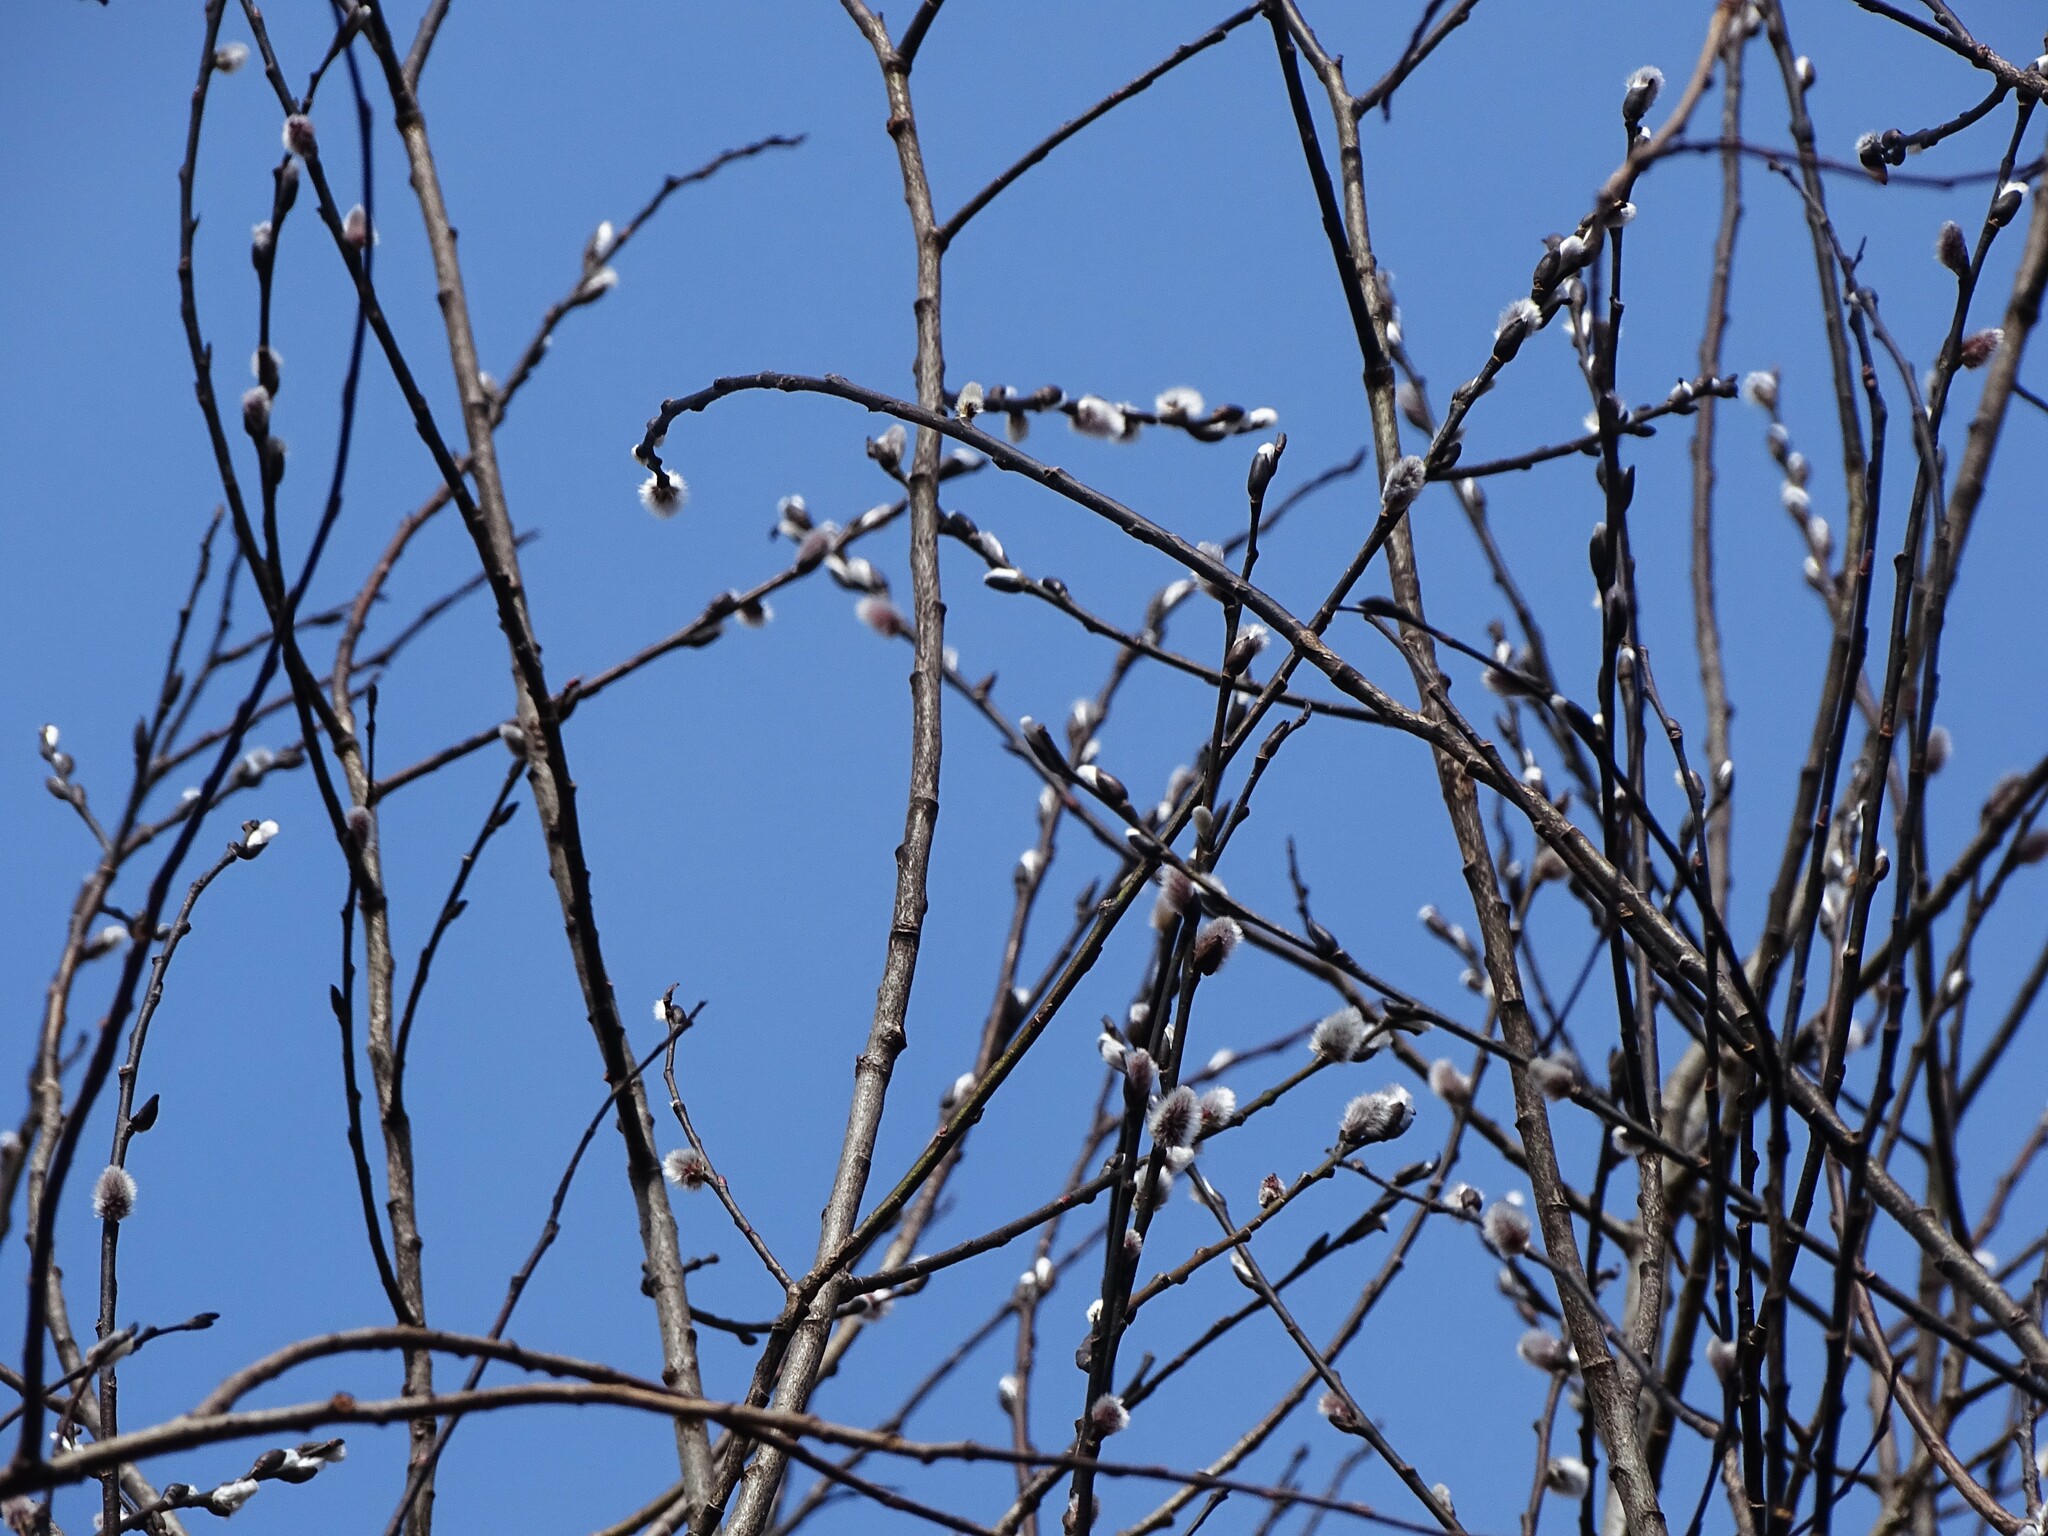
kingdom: Plantae
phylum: Tracheophyta
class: Magnoliopsida
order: Malpighiales
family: Salicaceae
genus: Salix
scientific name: Salix discolor
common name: Glaucous willow
